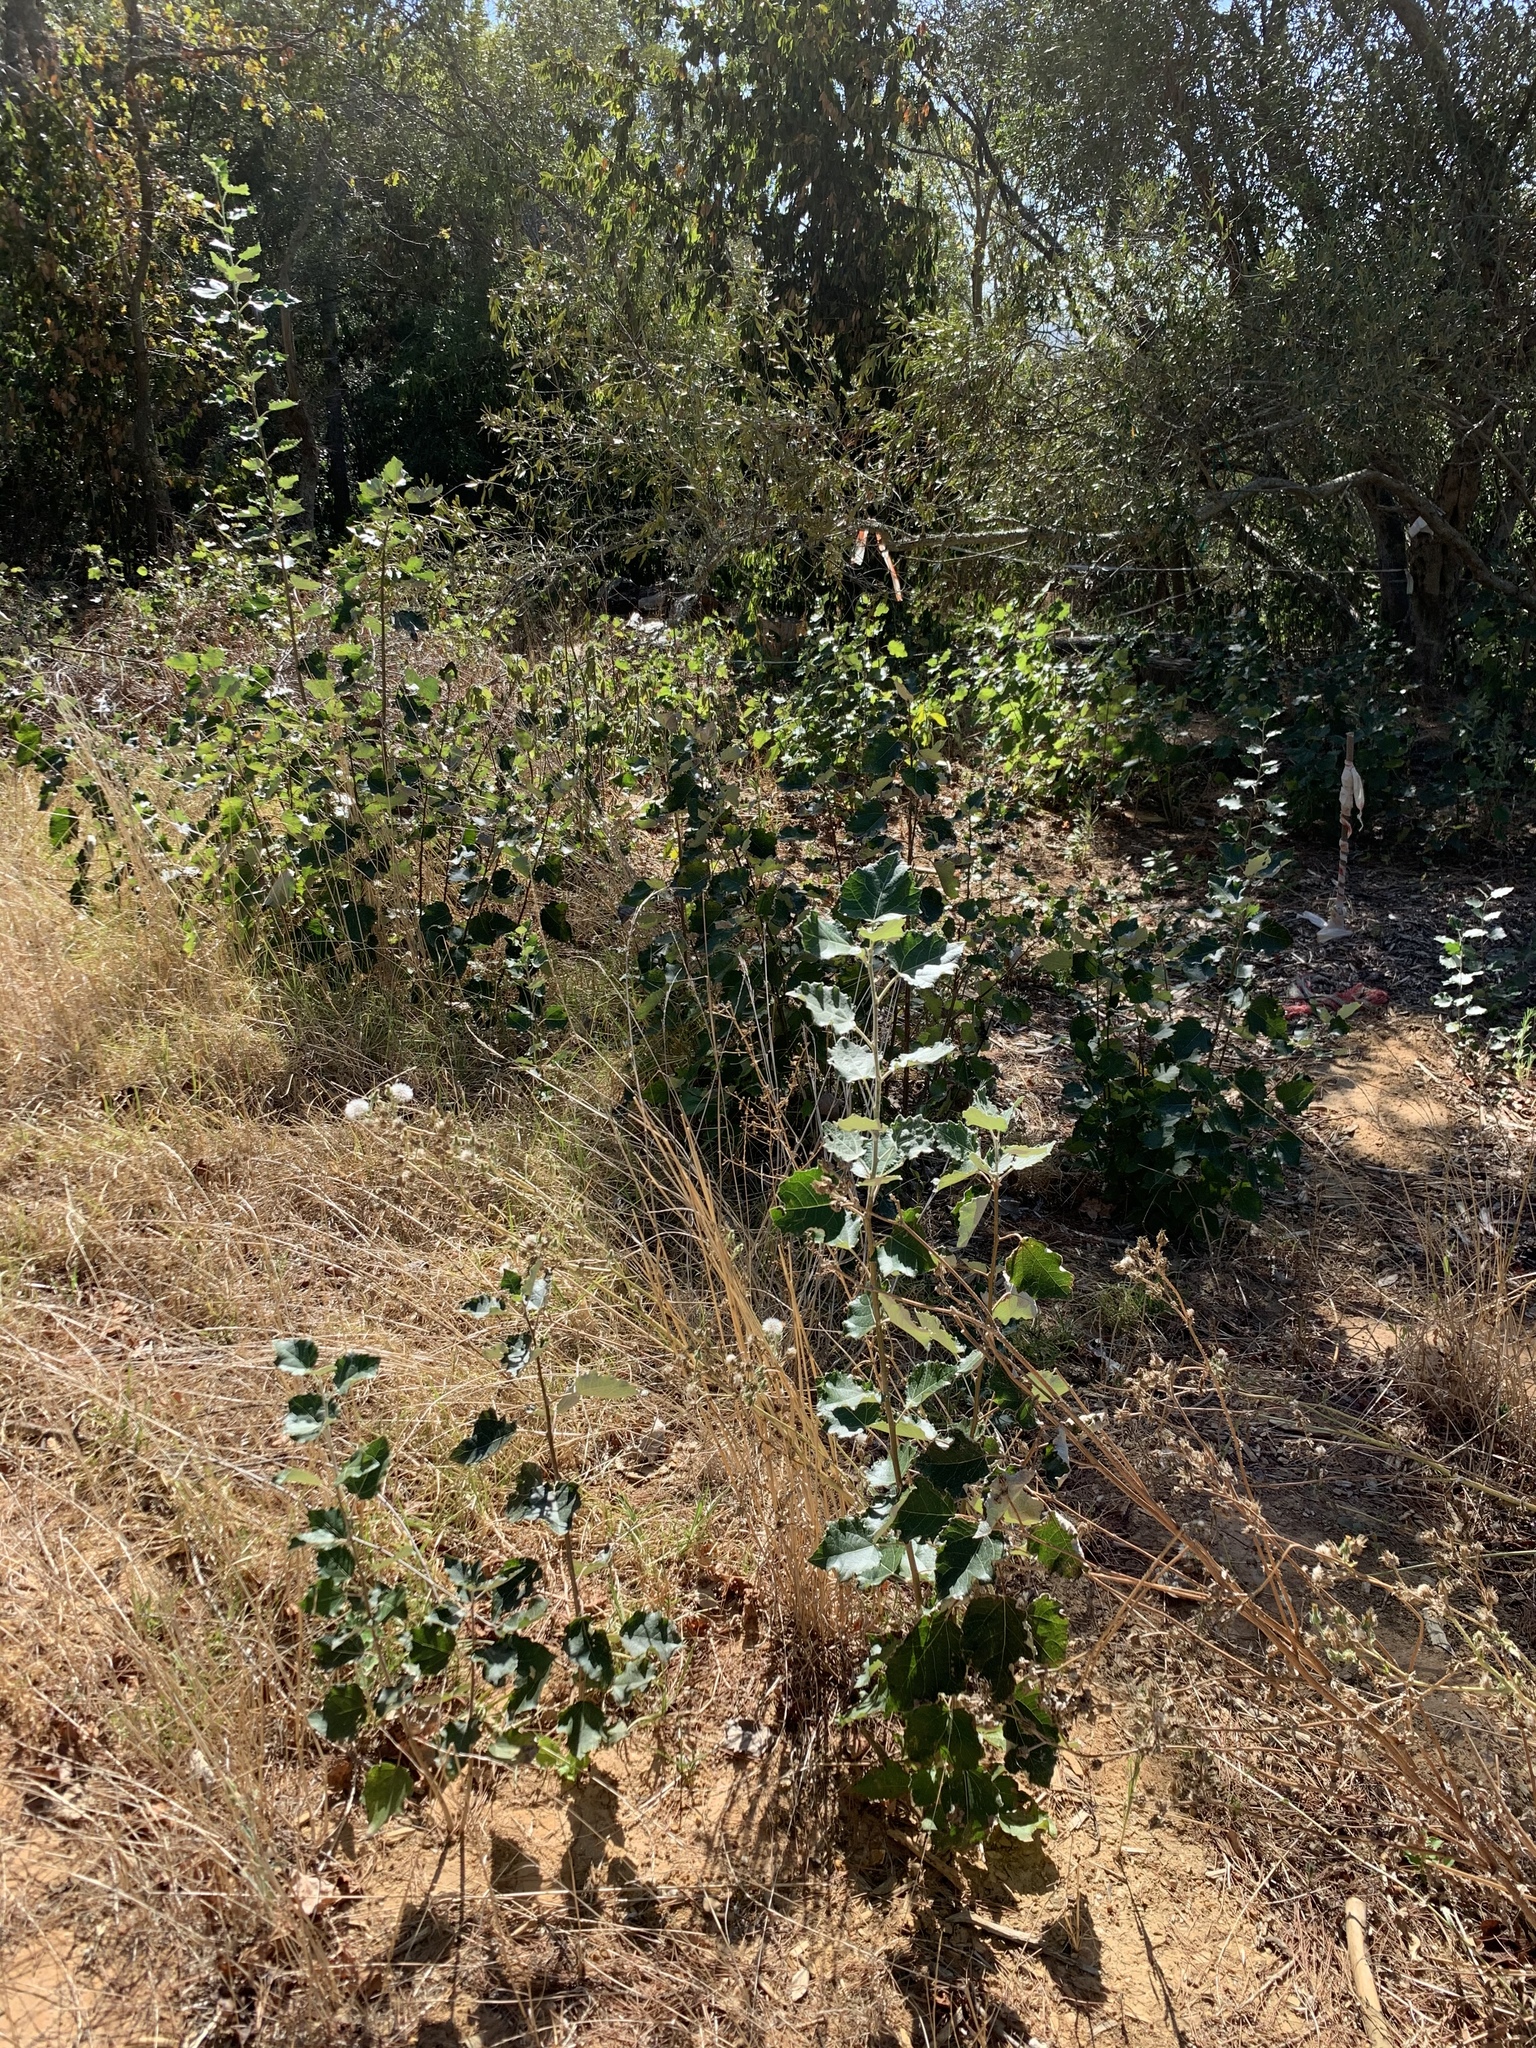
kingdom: Plantae
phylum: Tracheophyta
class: Magnoliopsida
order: Malpighiales
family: Salicaceae
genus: Populus
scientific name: Populus canescens
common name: Gray poplar
